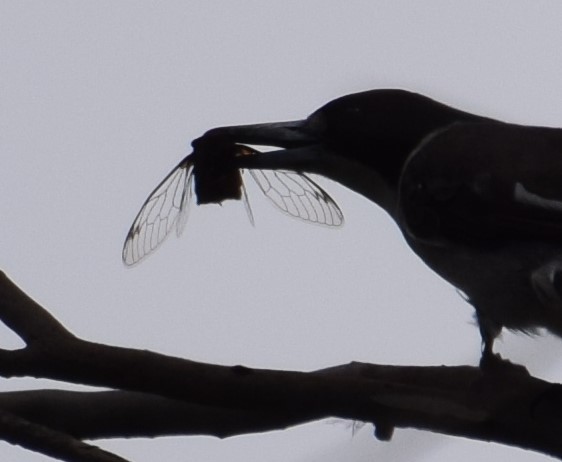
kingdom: Animalia
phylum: Arthropoda
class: Insecta
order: Hemiptera
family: Cicadidae
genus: Psaltoda
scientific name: Psaltoda plaga
